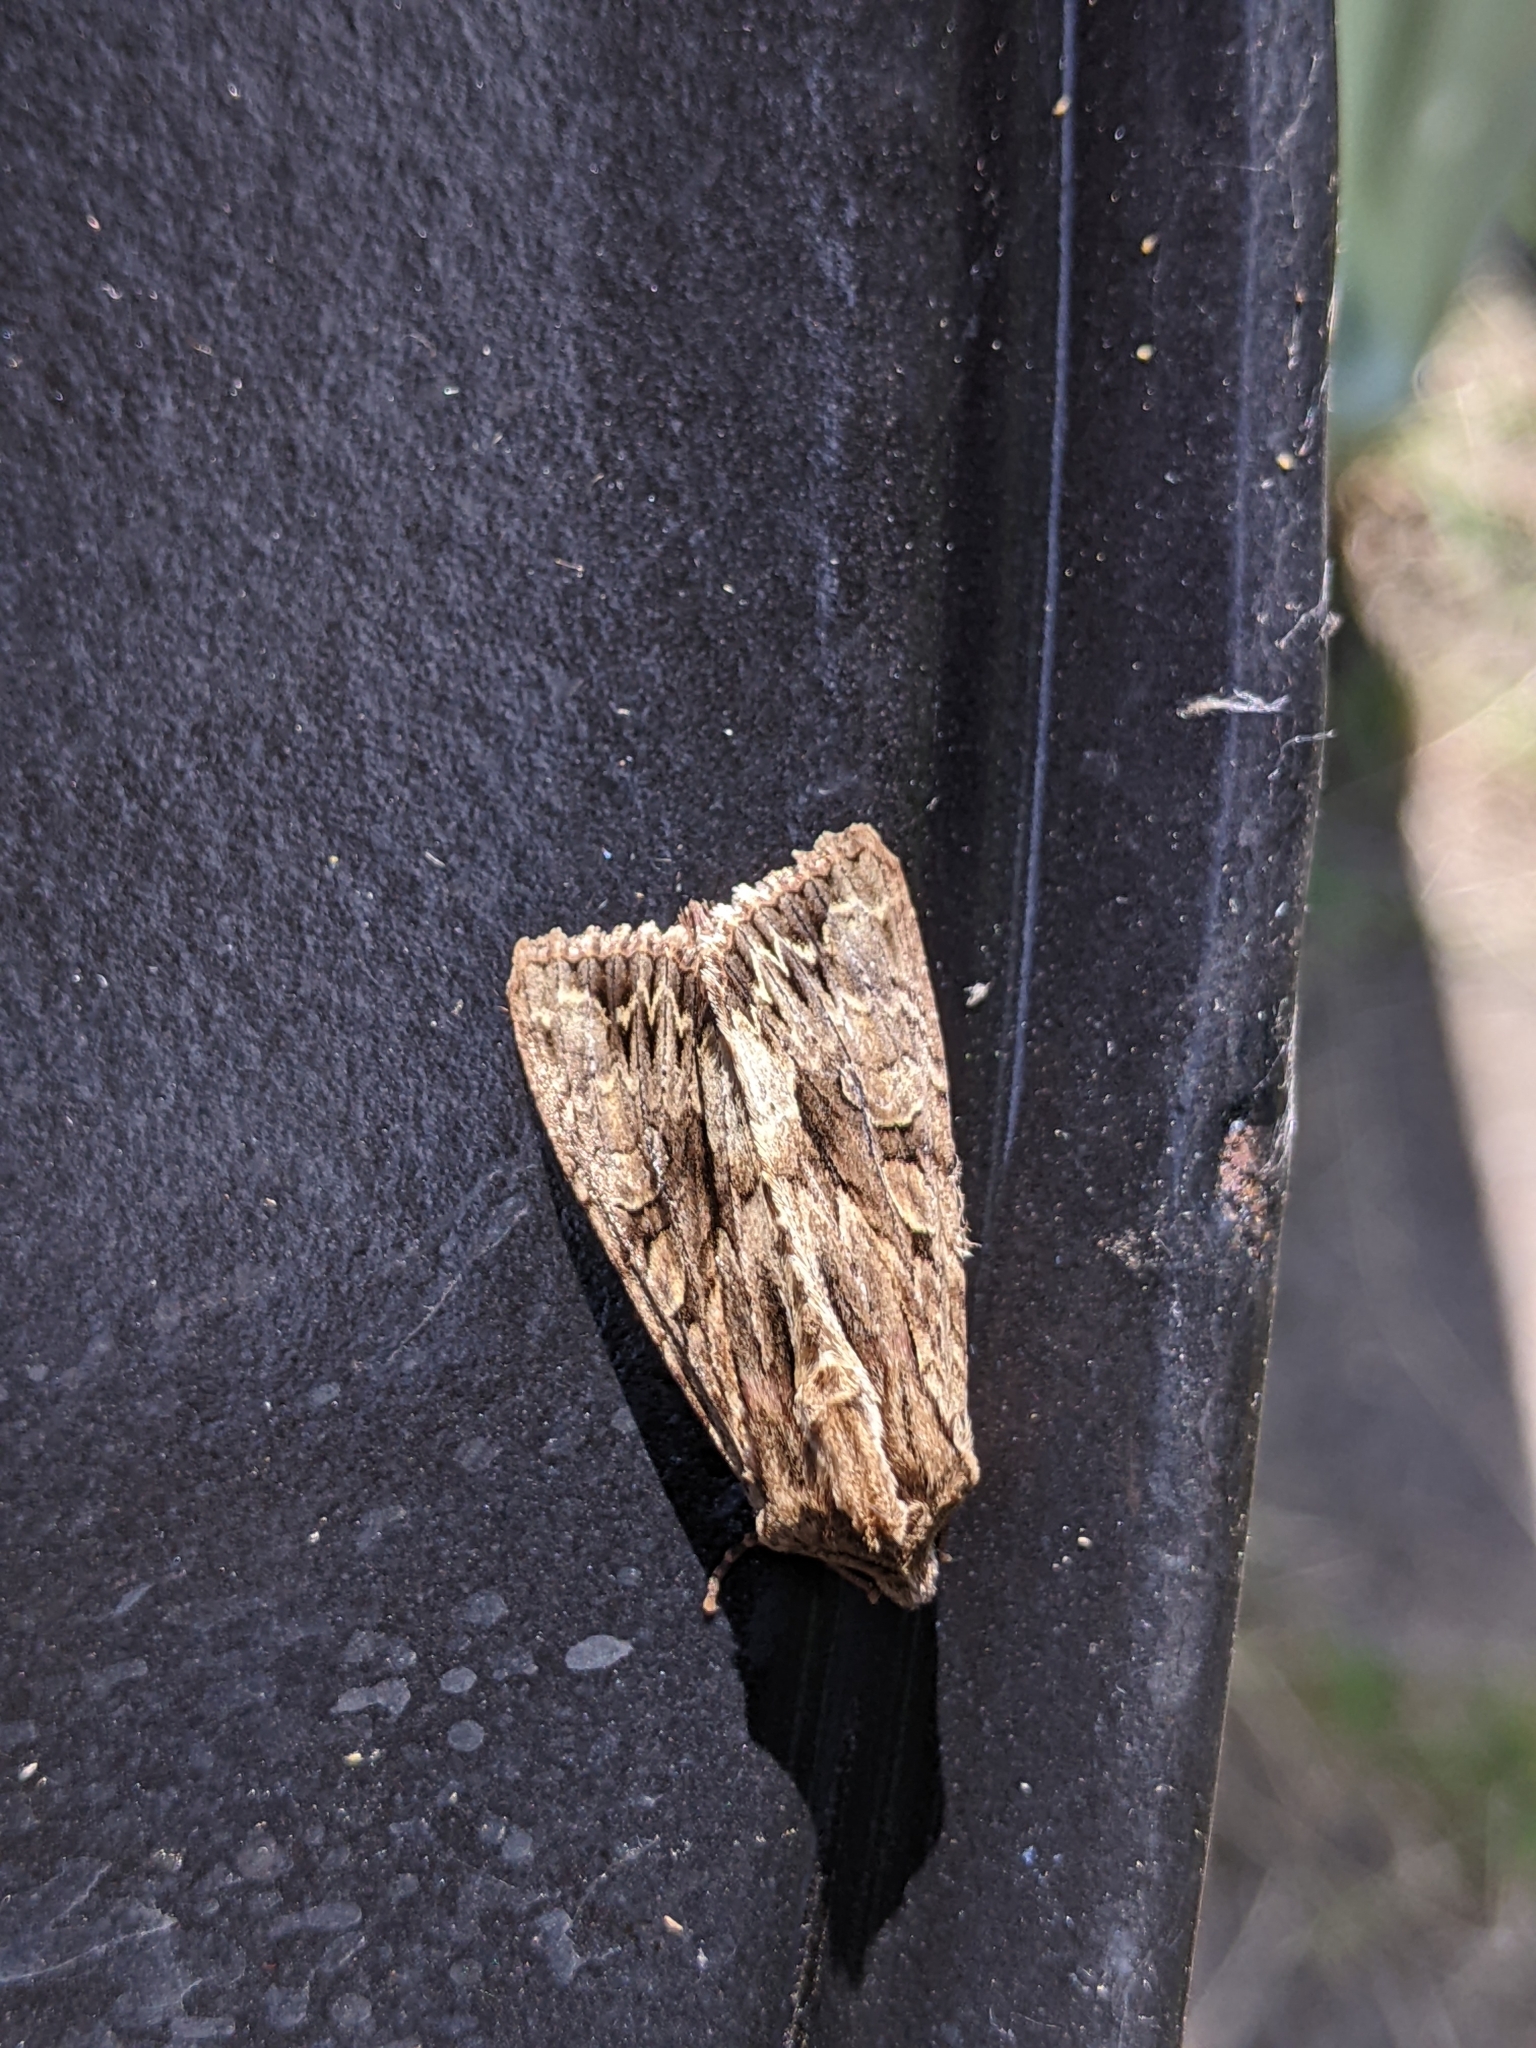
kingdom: Animalia
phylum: Arthropoda
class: Insecta
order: Lepidoptera
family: Noctuidae
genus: Apamea
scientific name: Apamea monoglypha
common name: Dark arches
